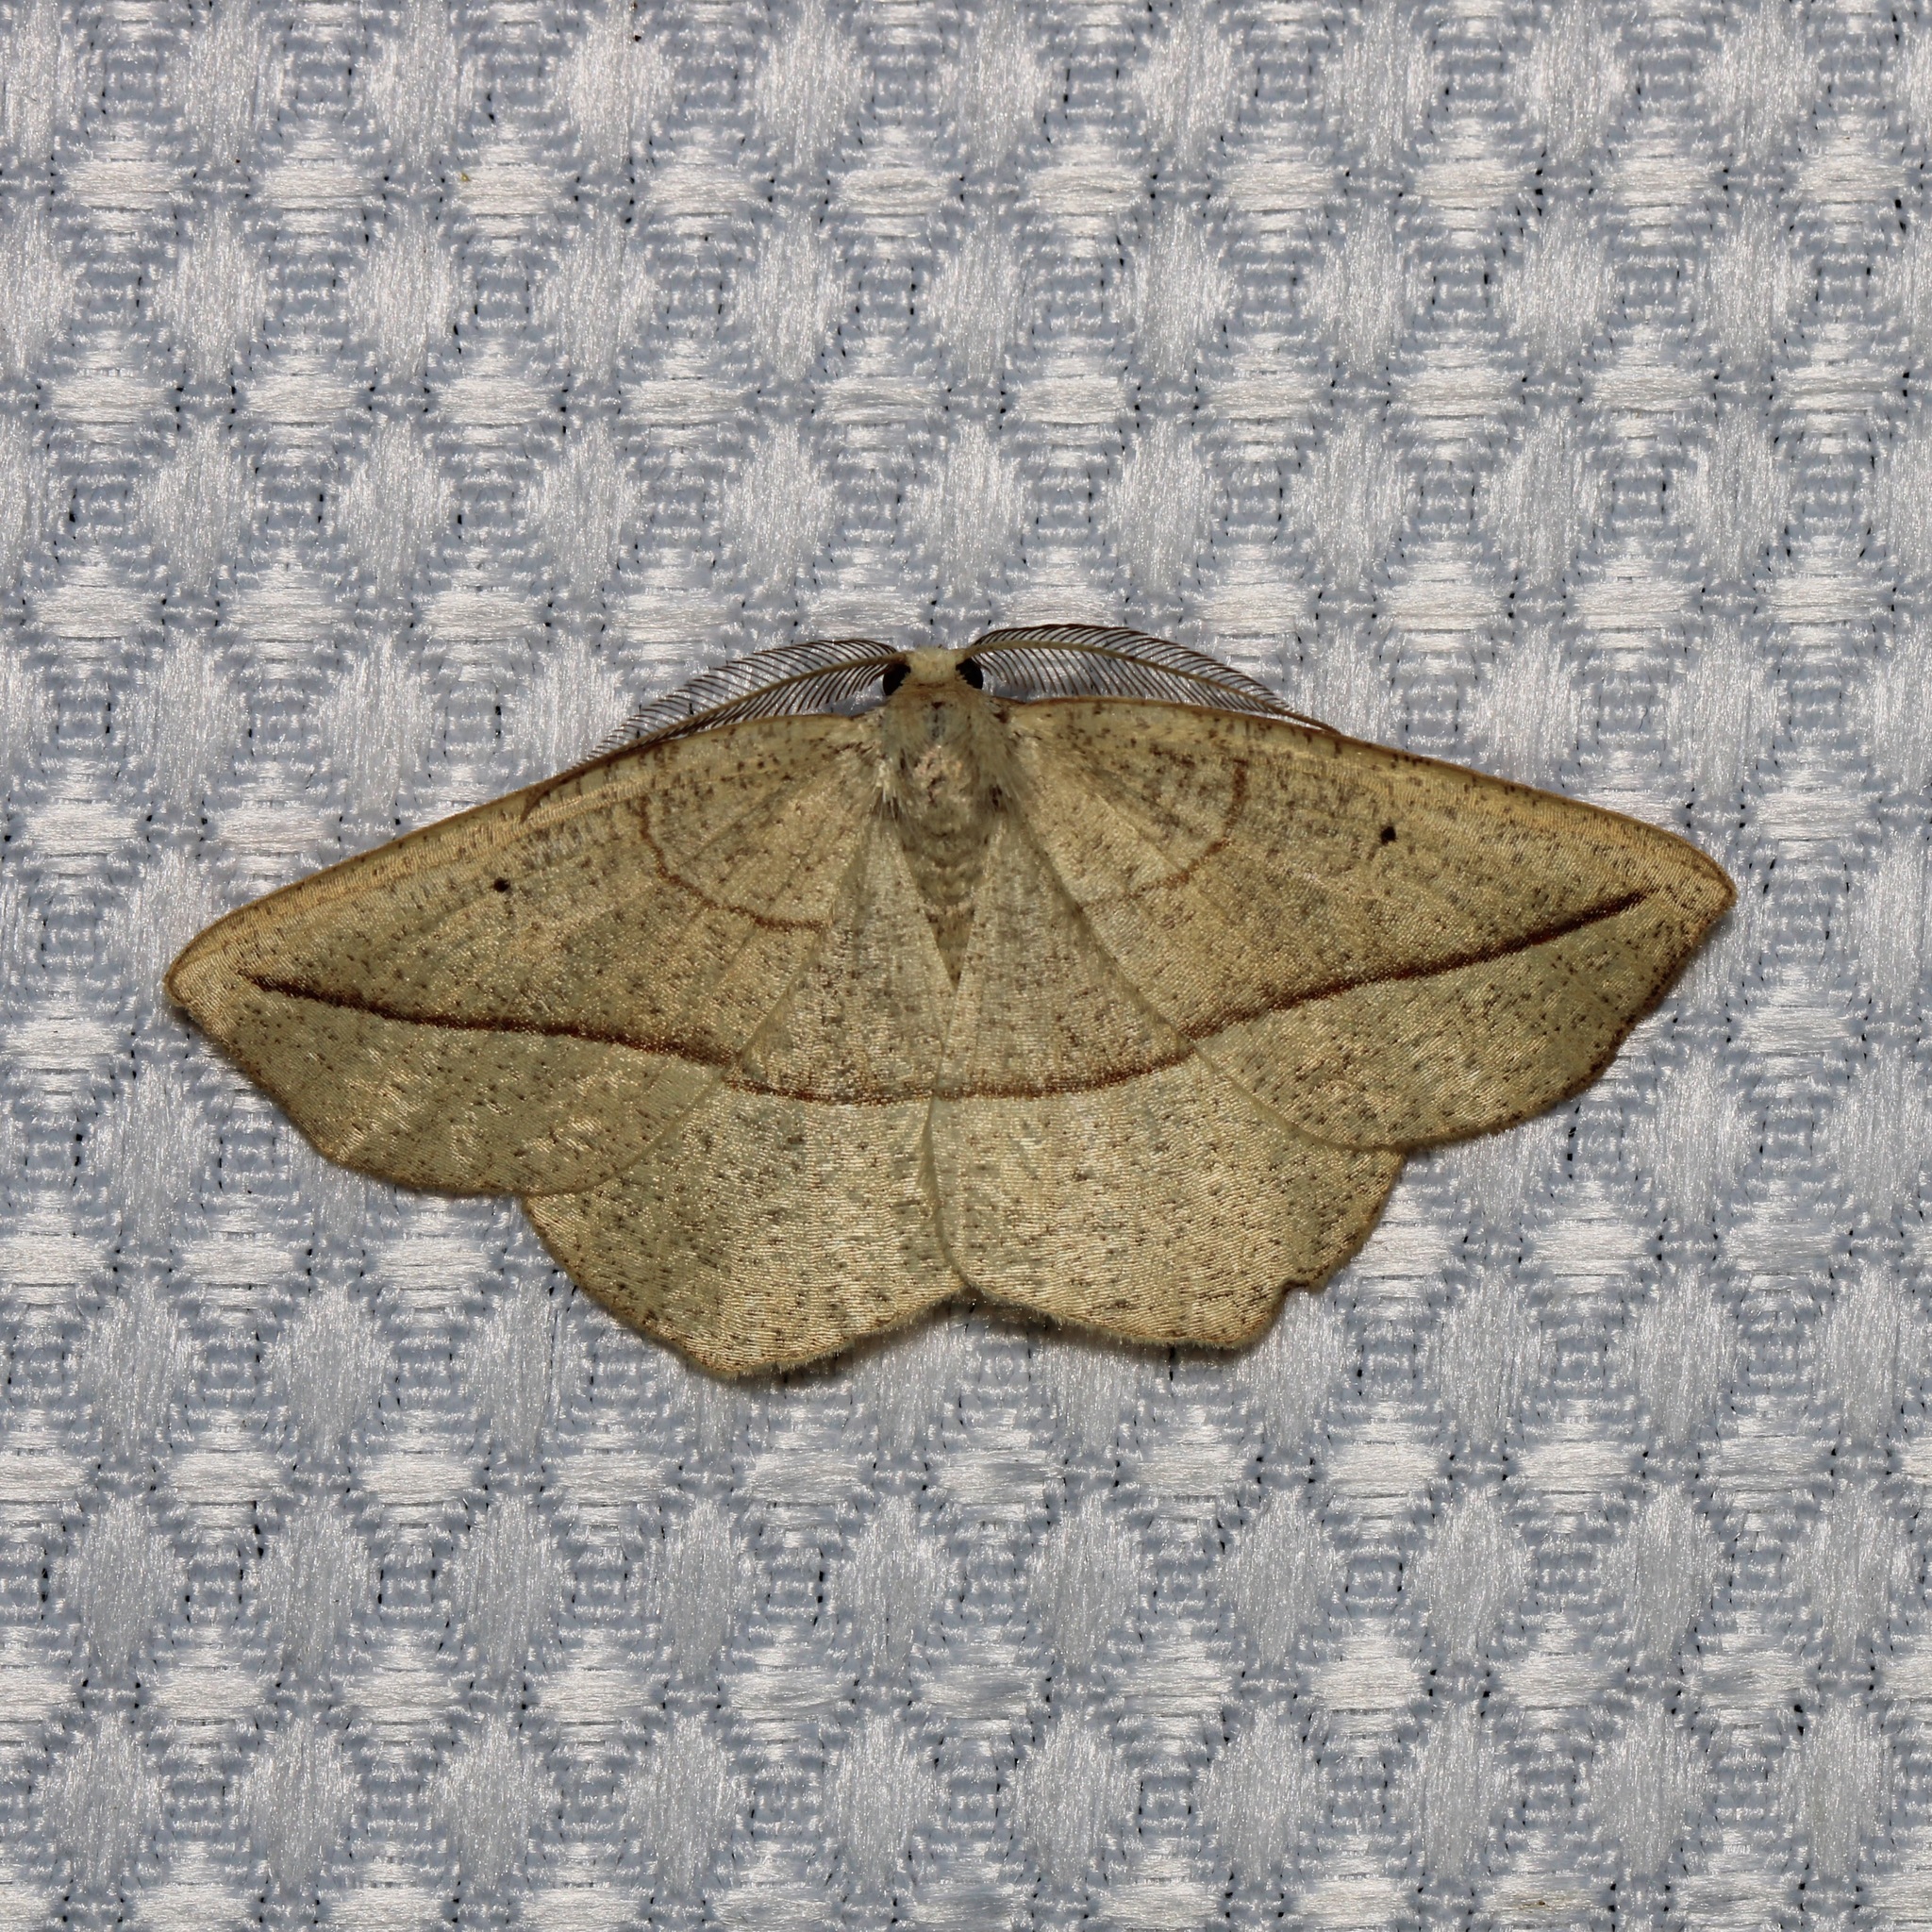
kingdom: Animalia
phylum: Arthropoda
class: Insecta
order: Lepidoptera
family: Geometridae
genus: Eusarca
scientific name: Eusarca confusaria
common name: Confused eusarca
